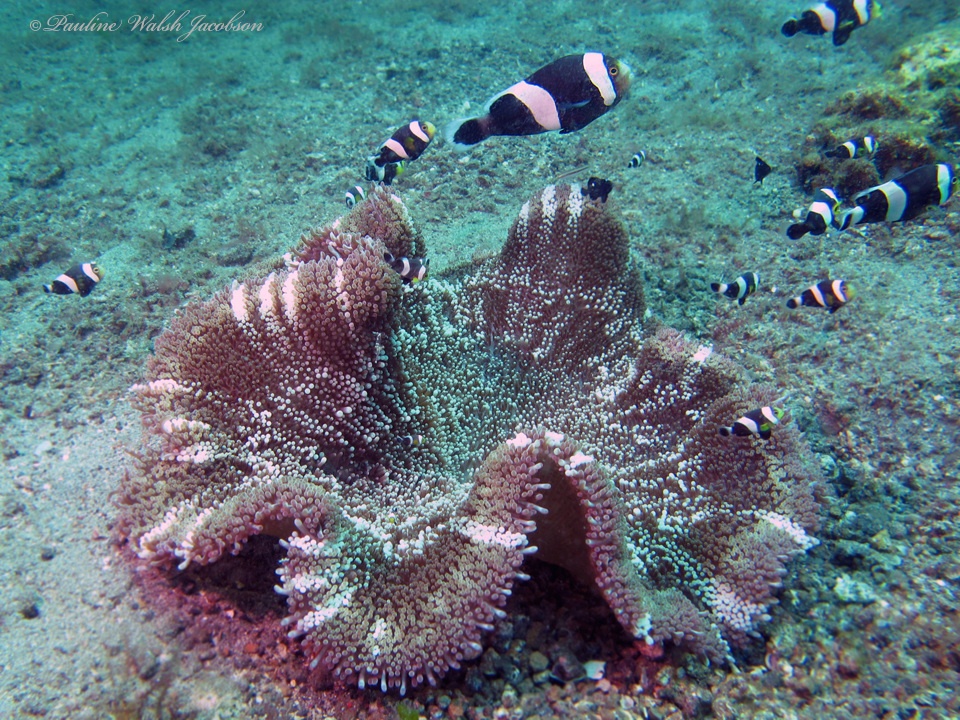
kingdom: Animalia
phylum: Chordata
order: Perciformes
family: Pomacentridae
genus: Amphiprion
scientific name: Amphiprion polymnus
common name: Saddleback anemonefish
